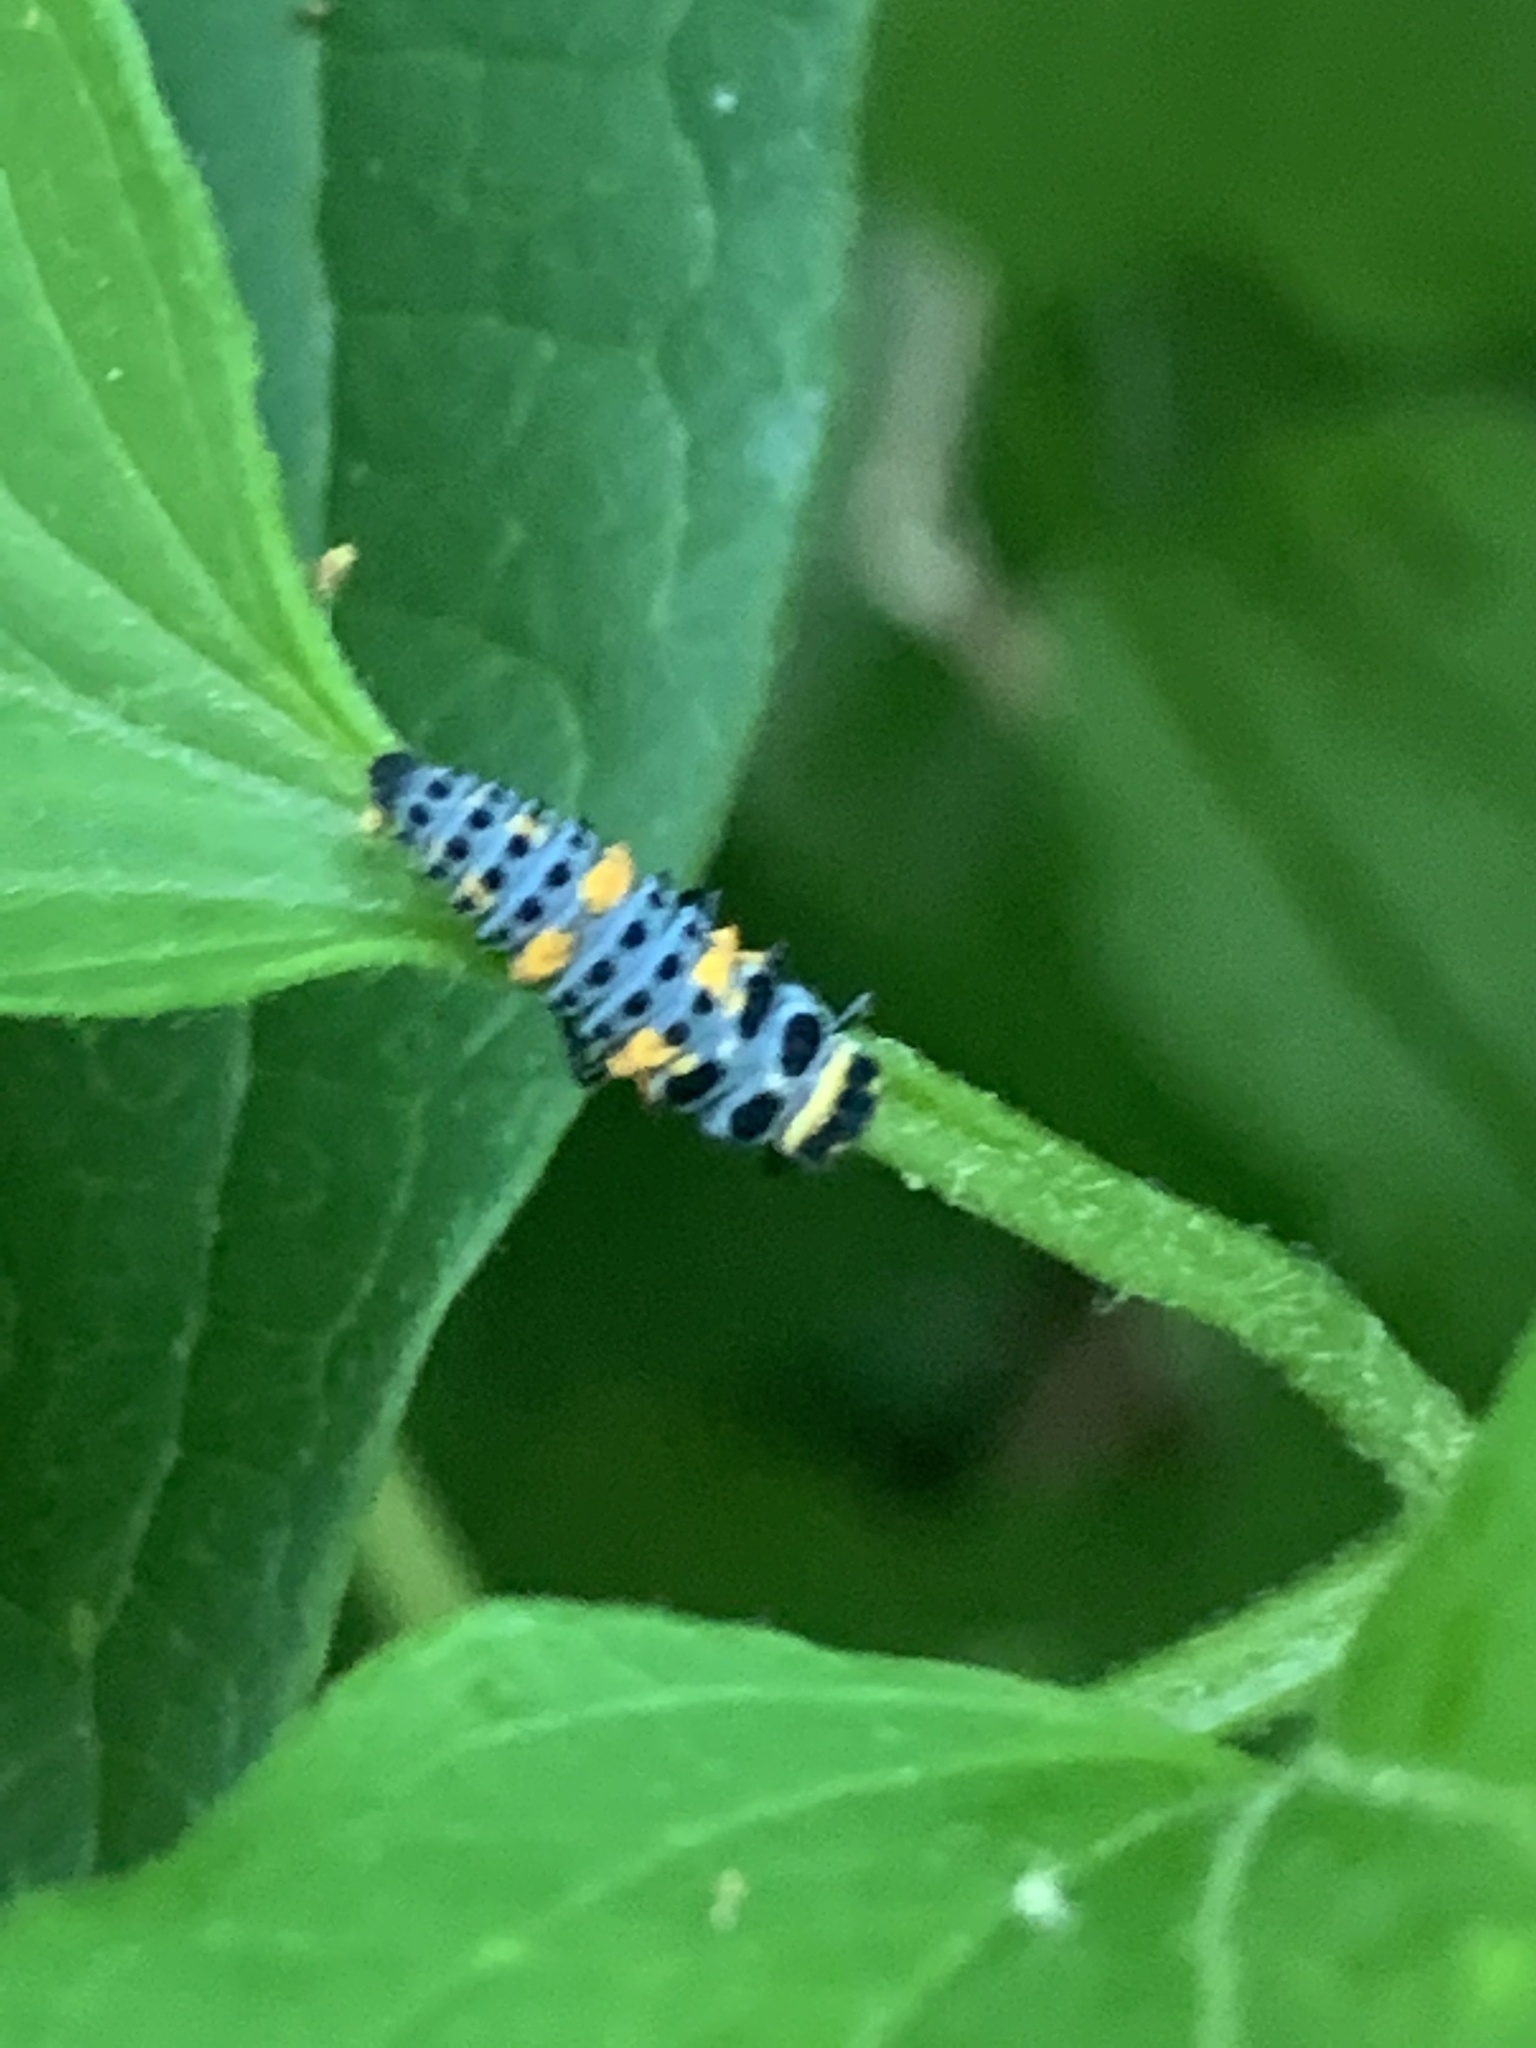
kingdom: Animalia
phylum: Arthropoda
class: Insecta
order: Coleoptera
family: Coccinellidae
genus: Hippodamia
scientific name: Hippodamia convergens
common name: Convergent lady beetle
